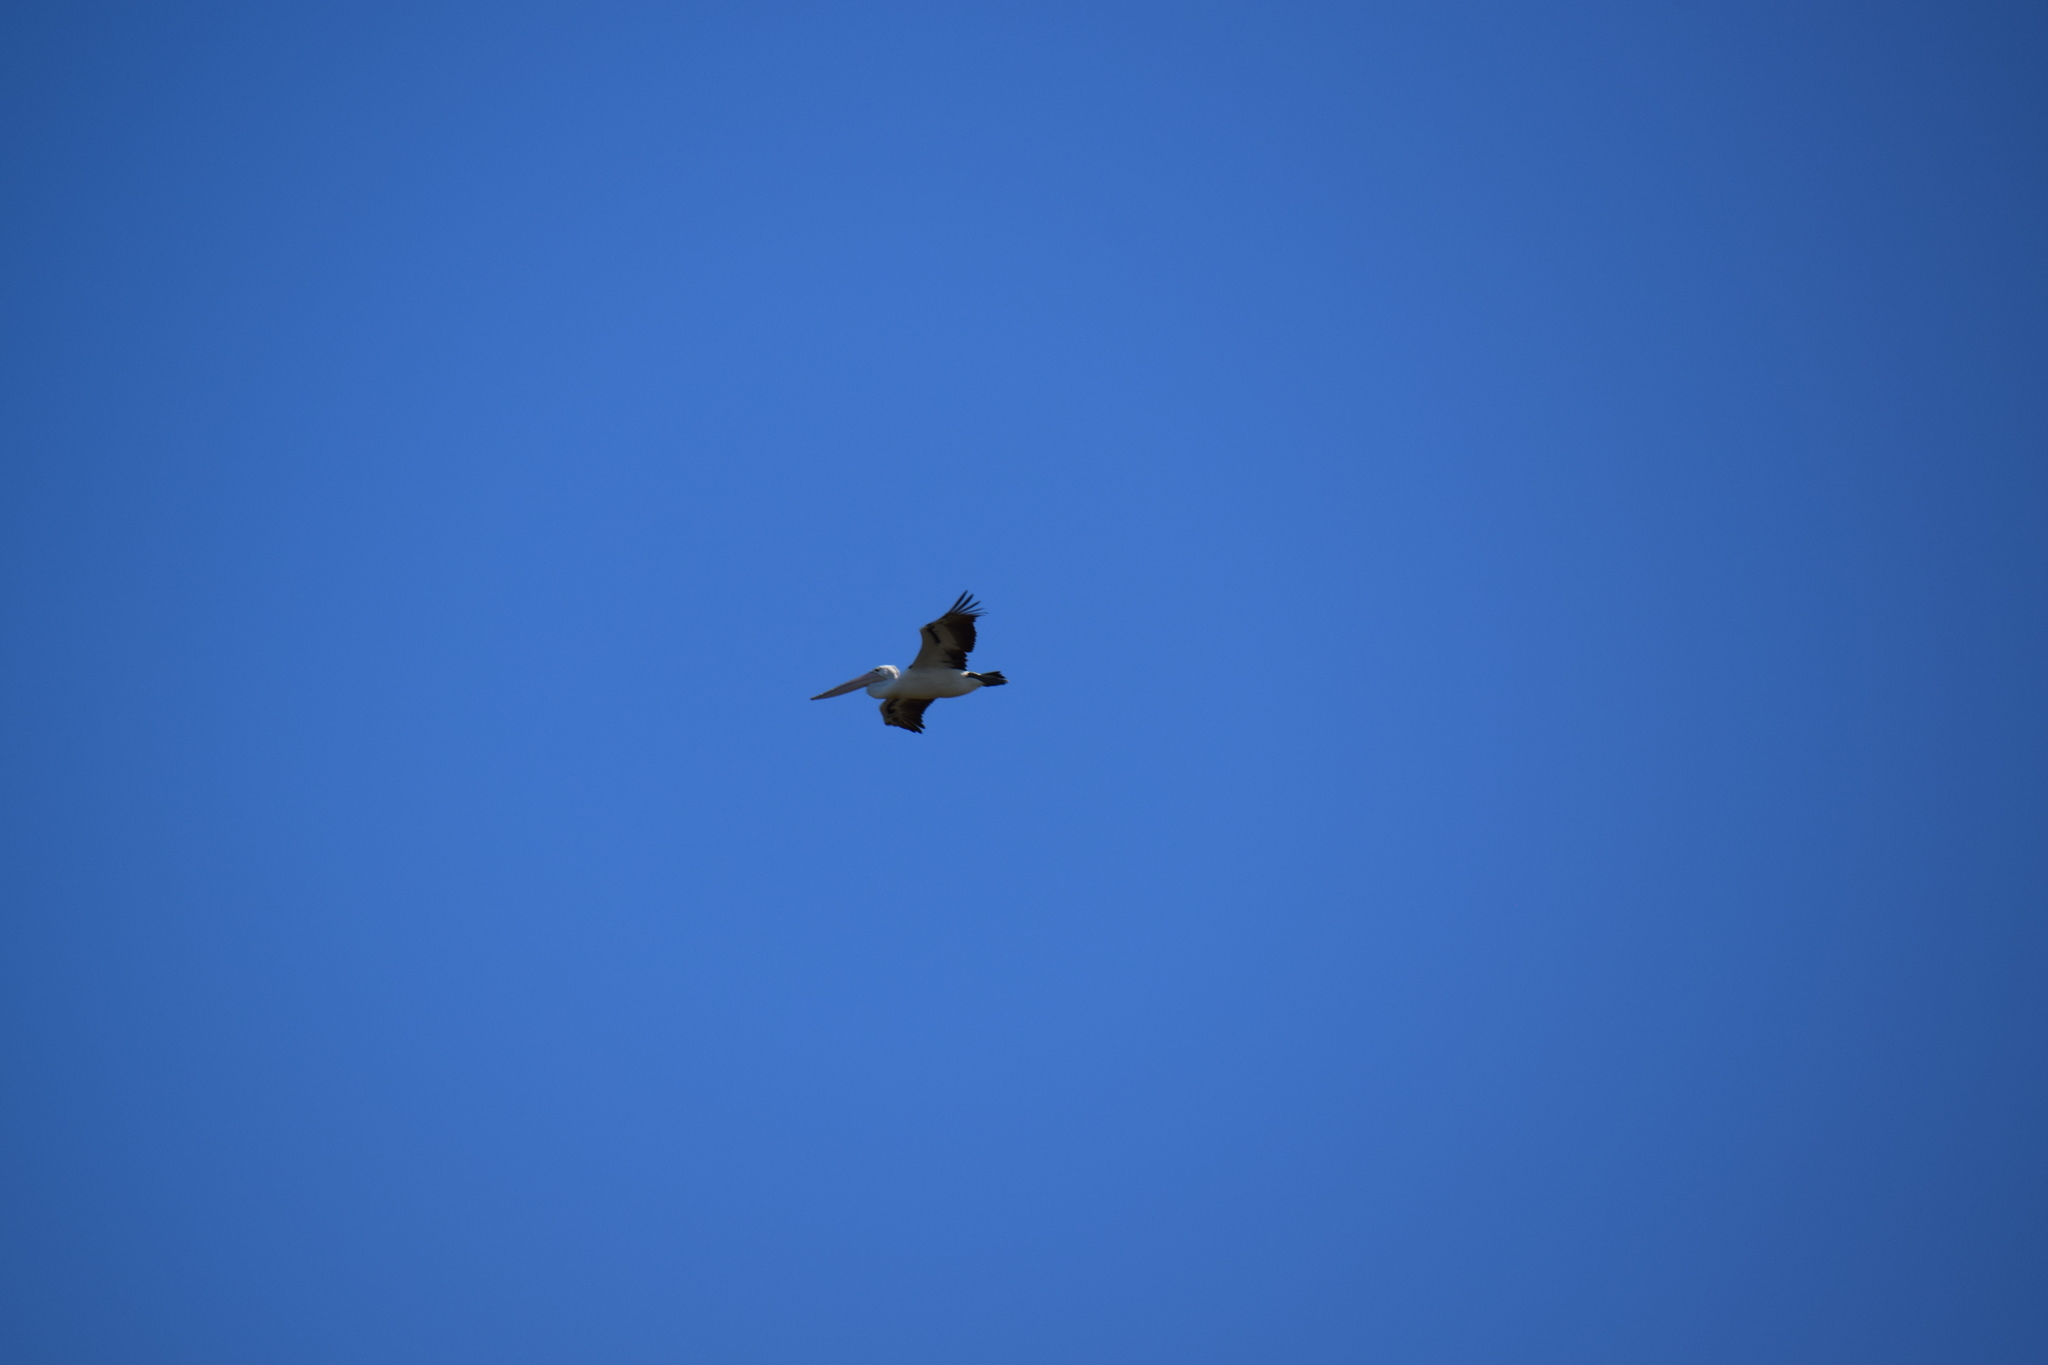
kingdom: Animalia
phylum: Chordata
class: Aves
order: Pelecaniformes
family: Pelecanidae
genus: Pelecanus
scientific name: Pelecanus conspicillatus
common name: Australian pelican
